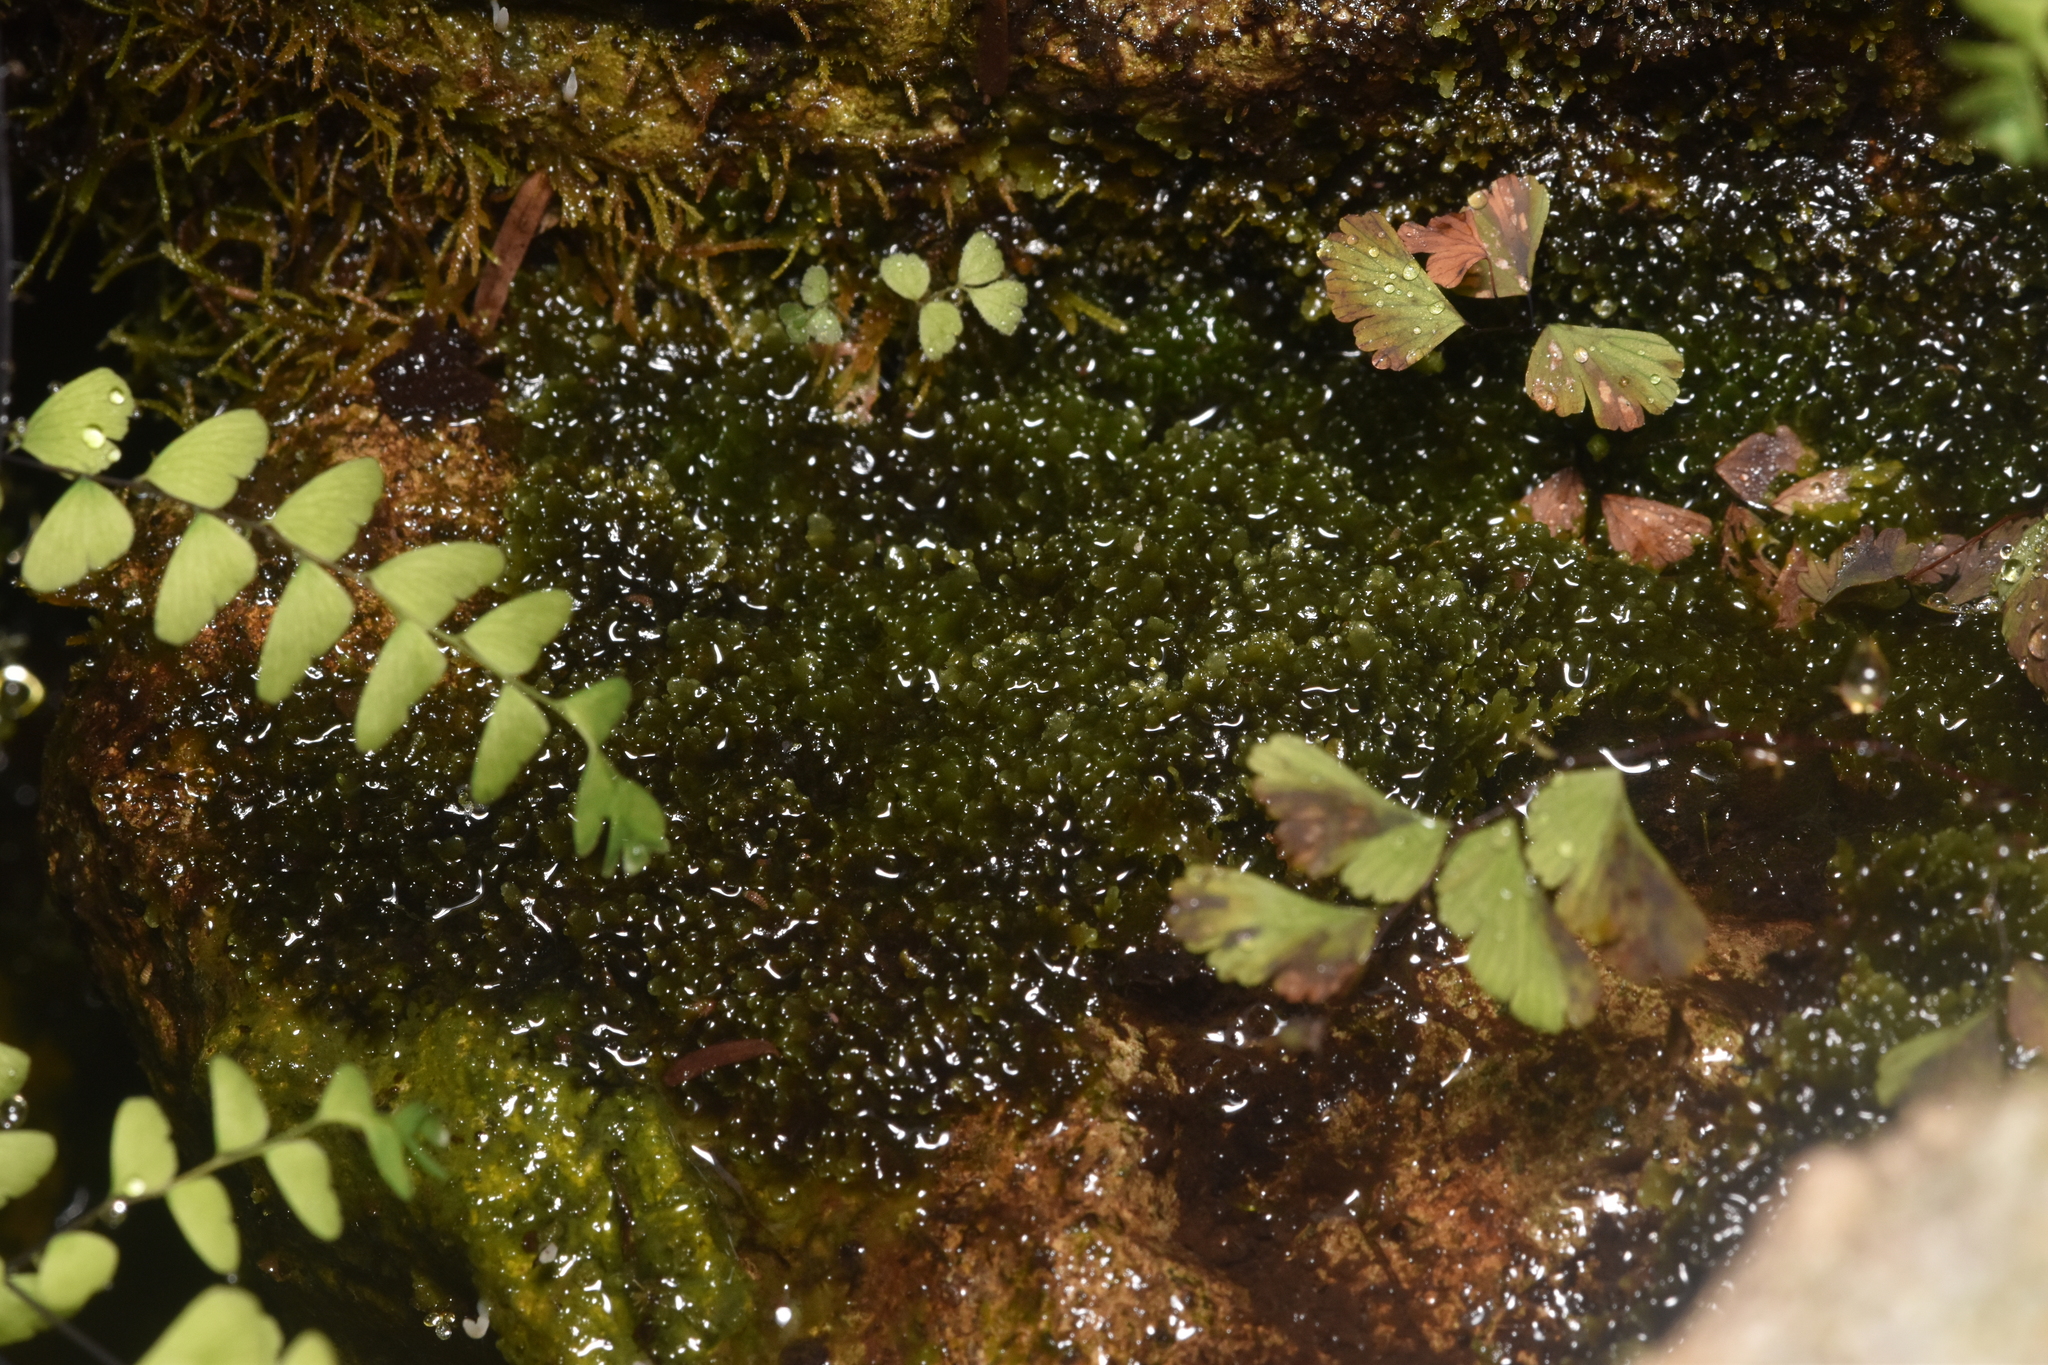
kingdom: Plantae
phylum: Marchantiophyta
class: Jungermanniopsida
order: Metzgeriales
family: Aneuraceae
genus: Riccardia
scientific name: Riccardia latifrons
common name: Bog germanderwort
